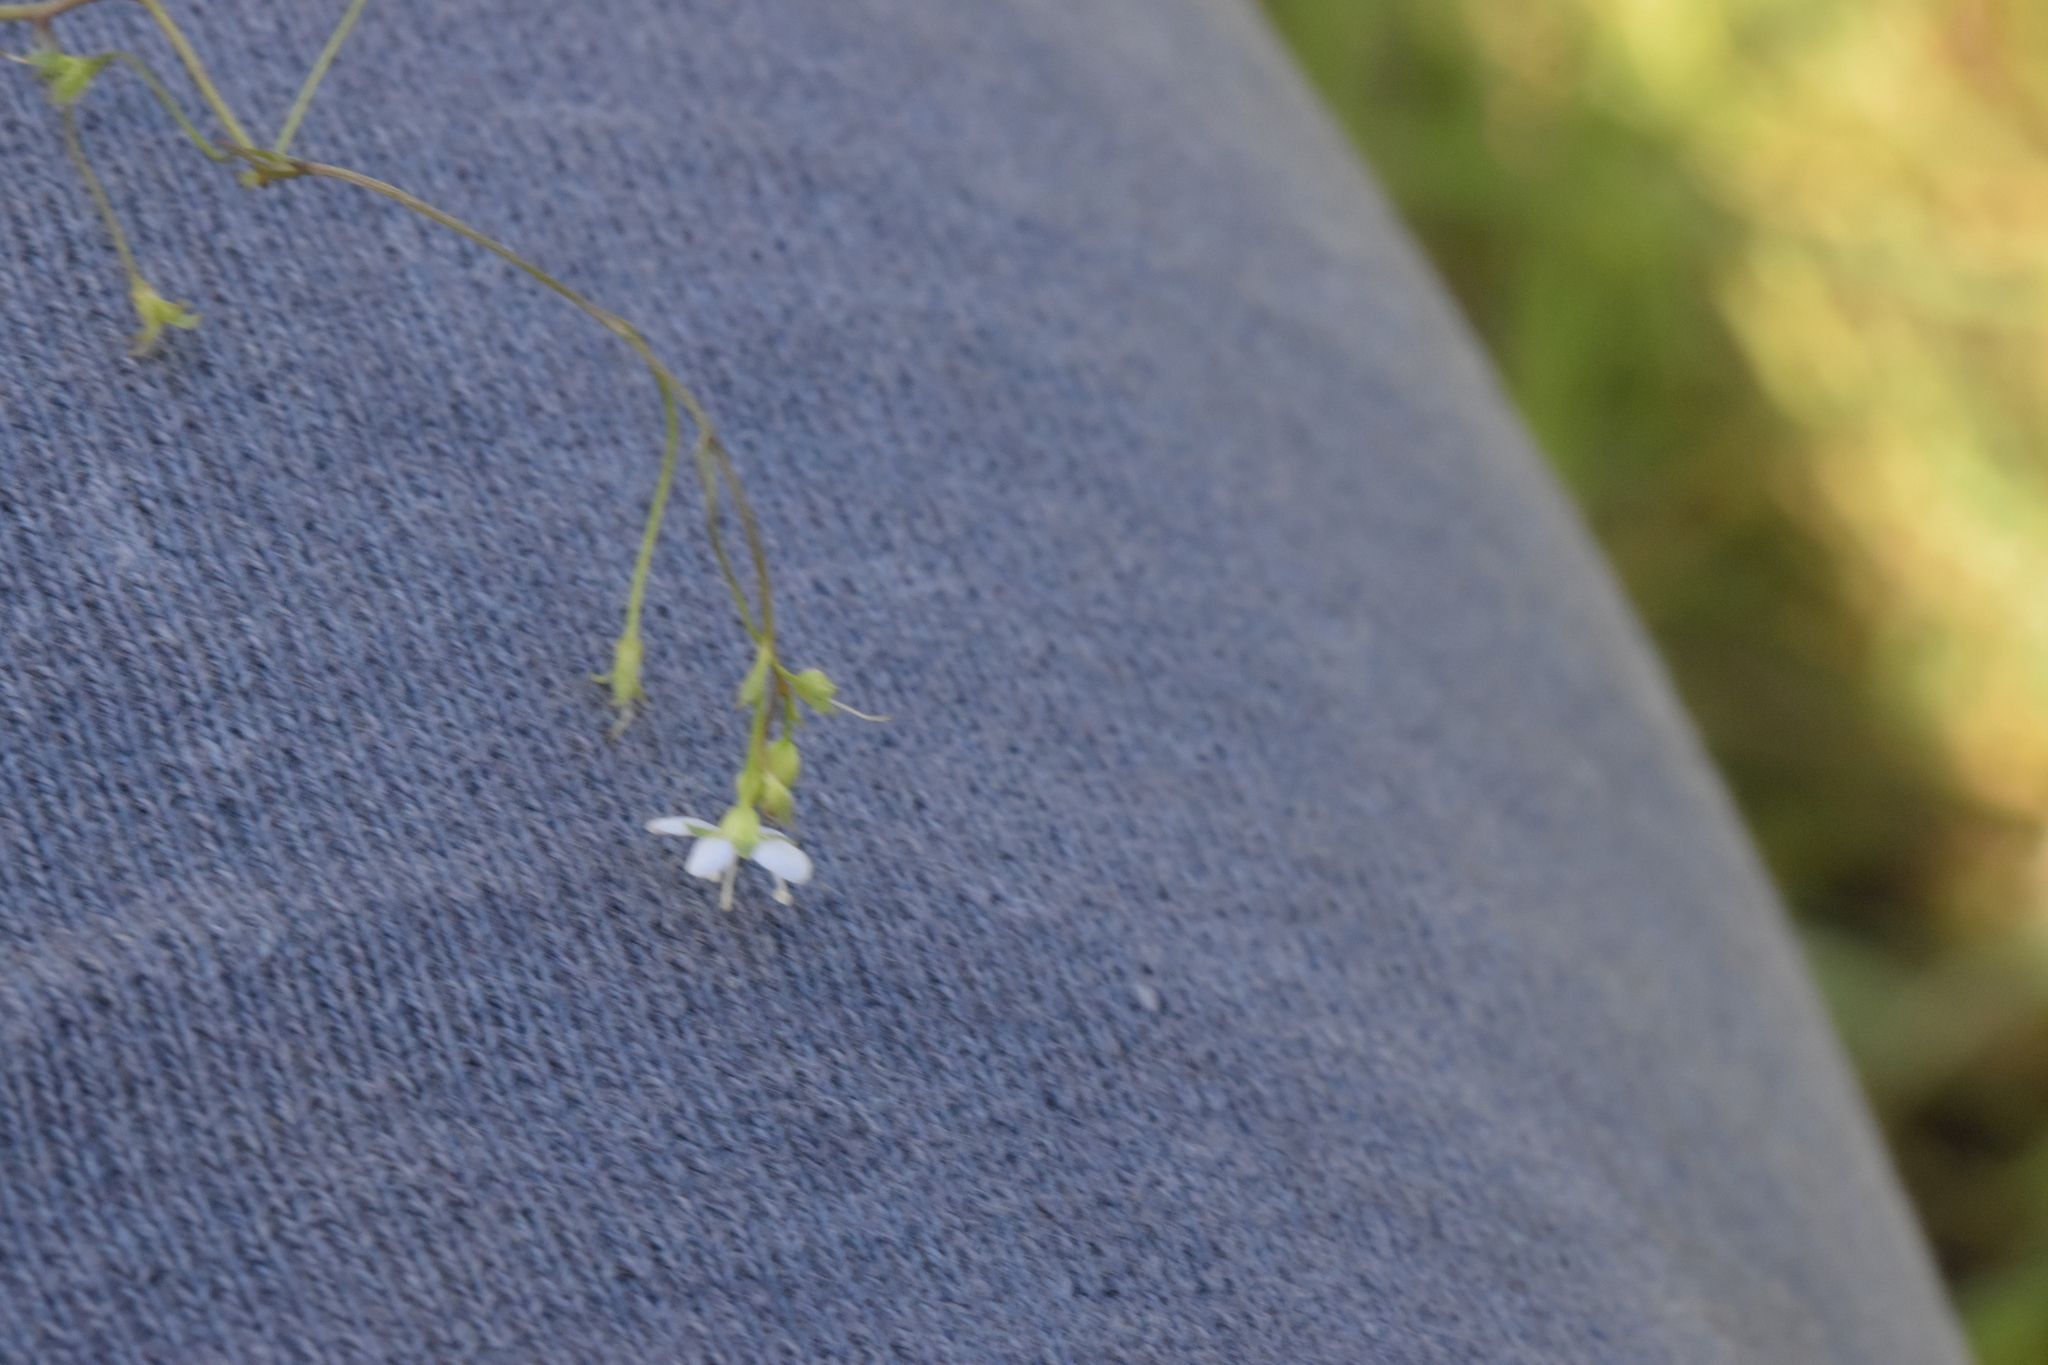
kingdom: Plantae
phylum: Tracheophyta
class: Magnoliopsida
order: Lamiales
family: Plantaginaceae
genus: Veronica
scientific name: Veronica scutellata
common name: Marsh speedwell
